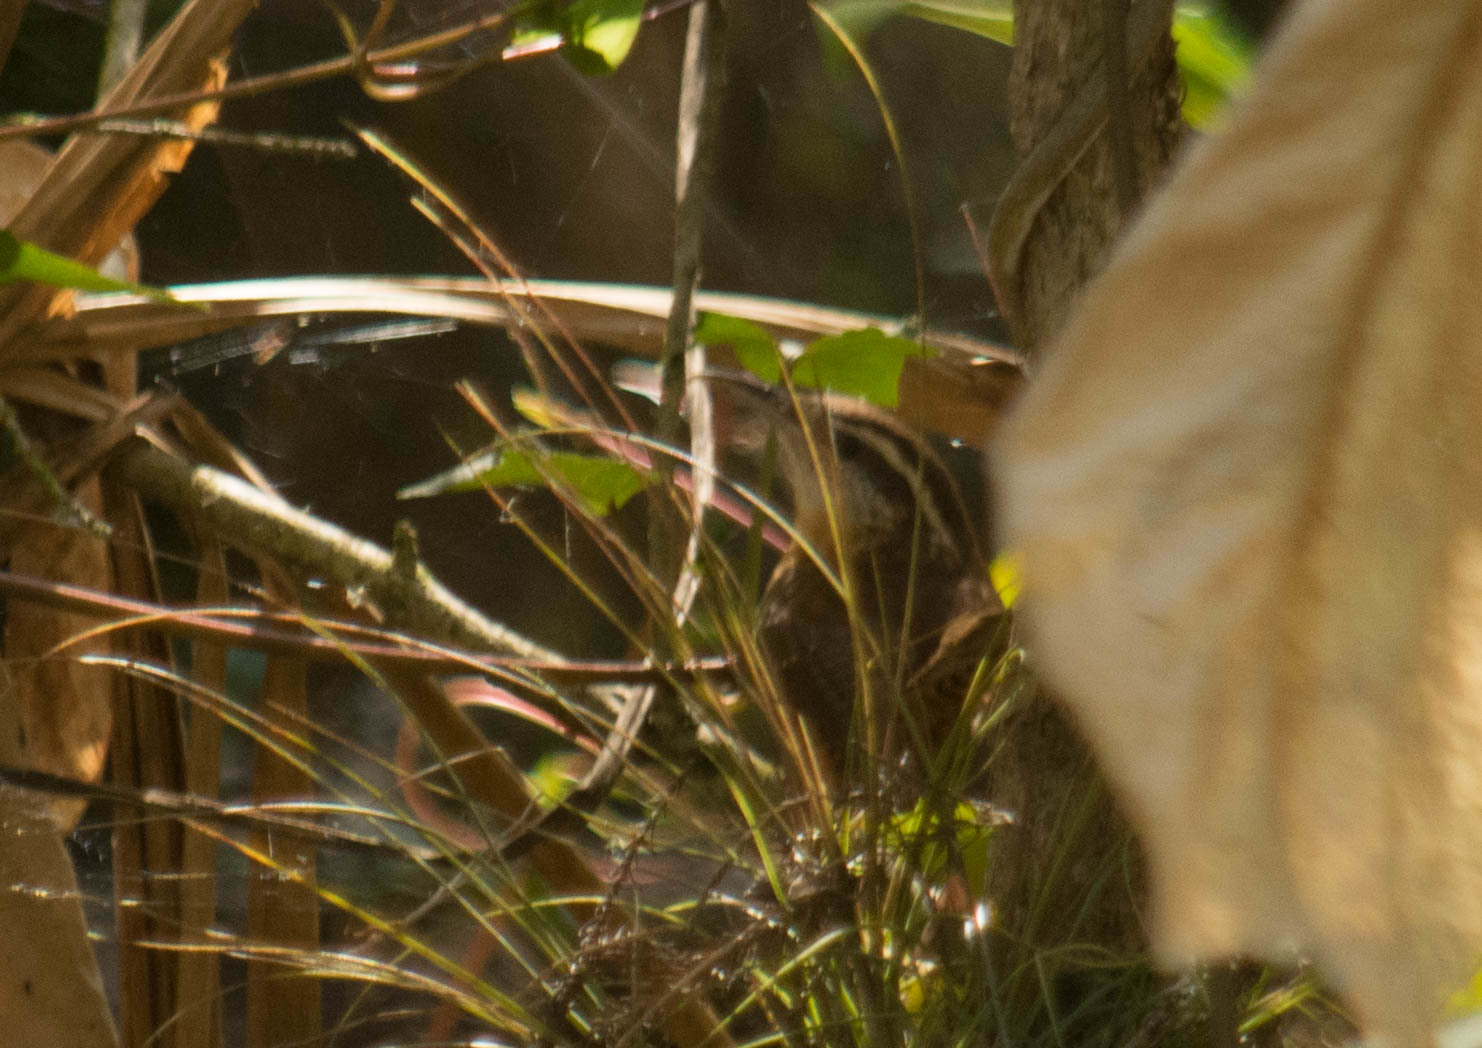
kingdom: Animalia
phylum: Chordata
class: Aves
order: Passeriformes
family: Troglodytidae
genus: Thryothorus
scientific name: Thryothorus ludovicianus
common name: Carolina wren
